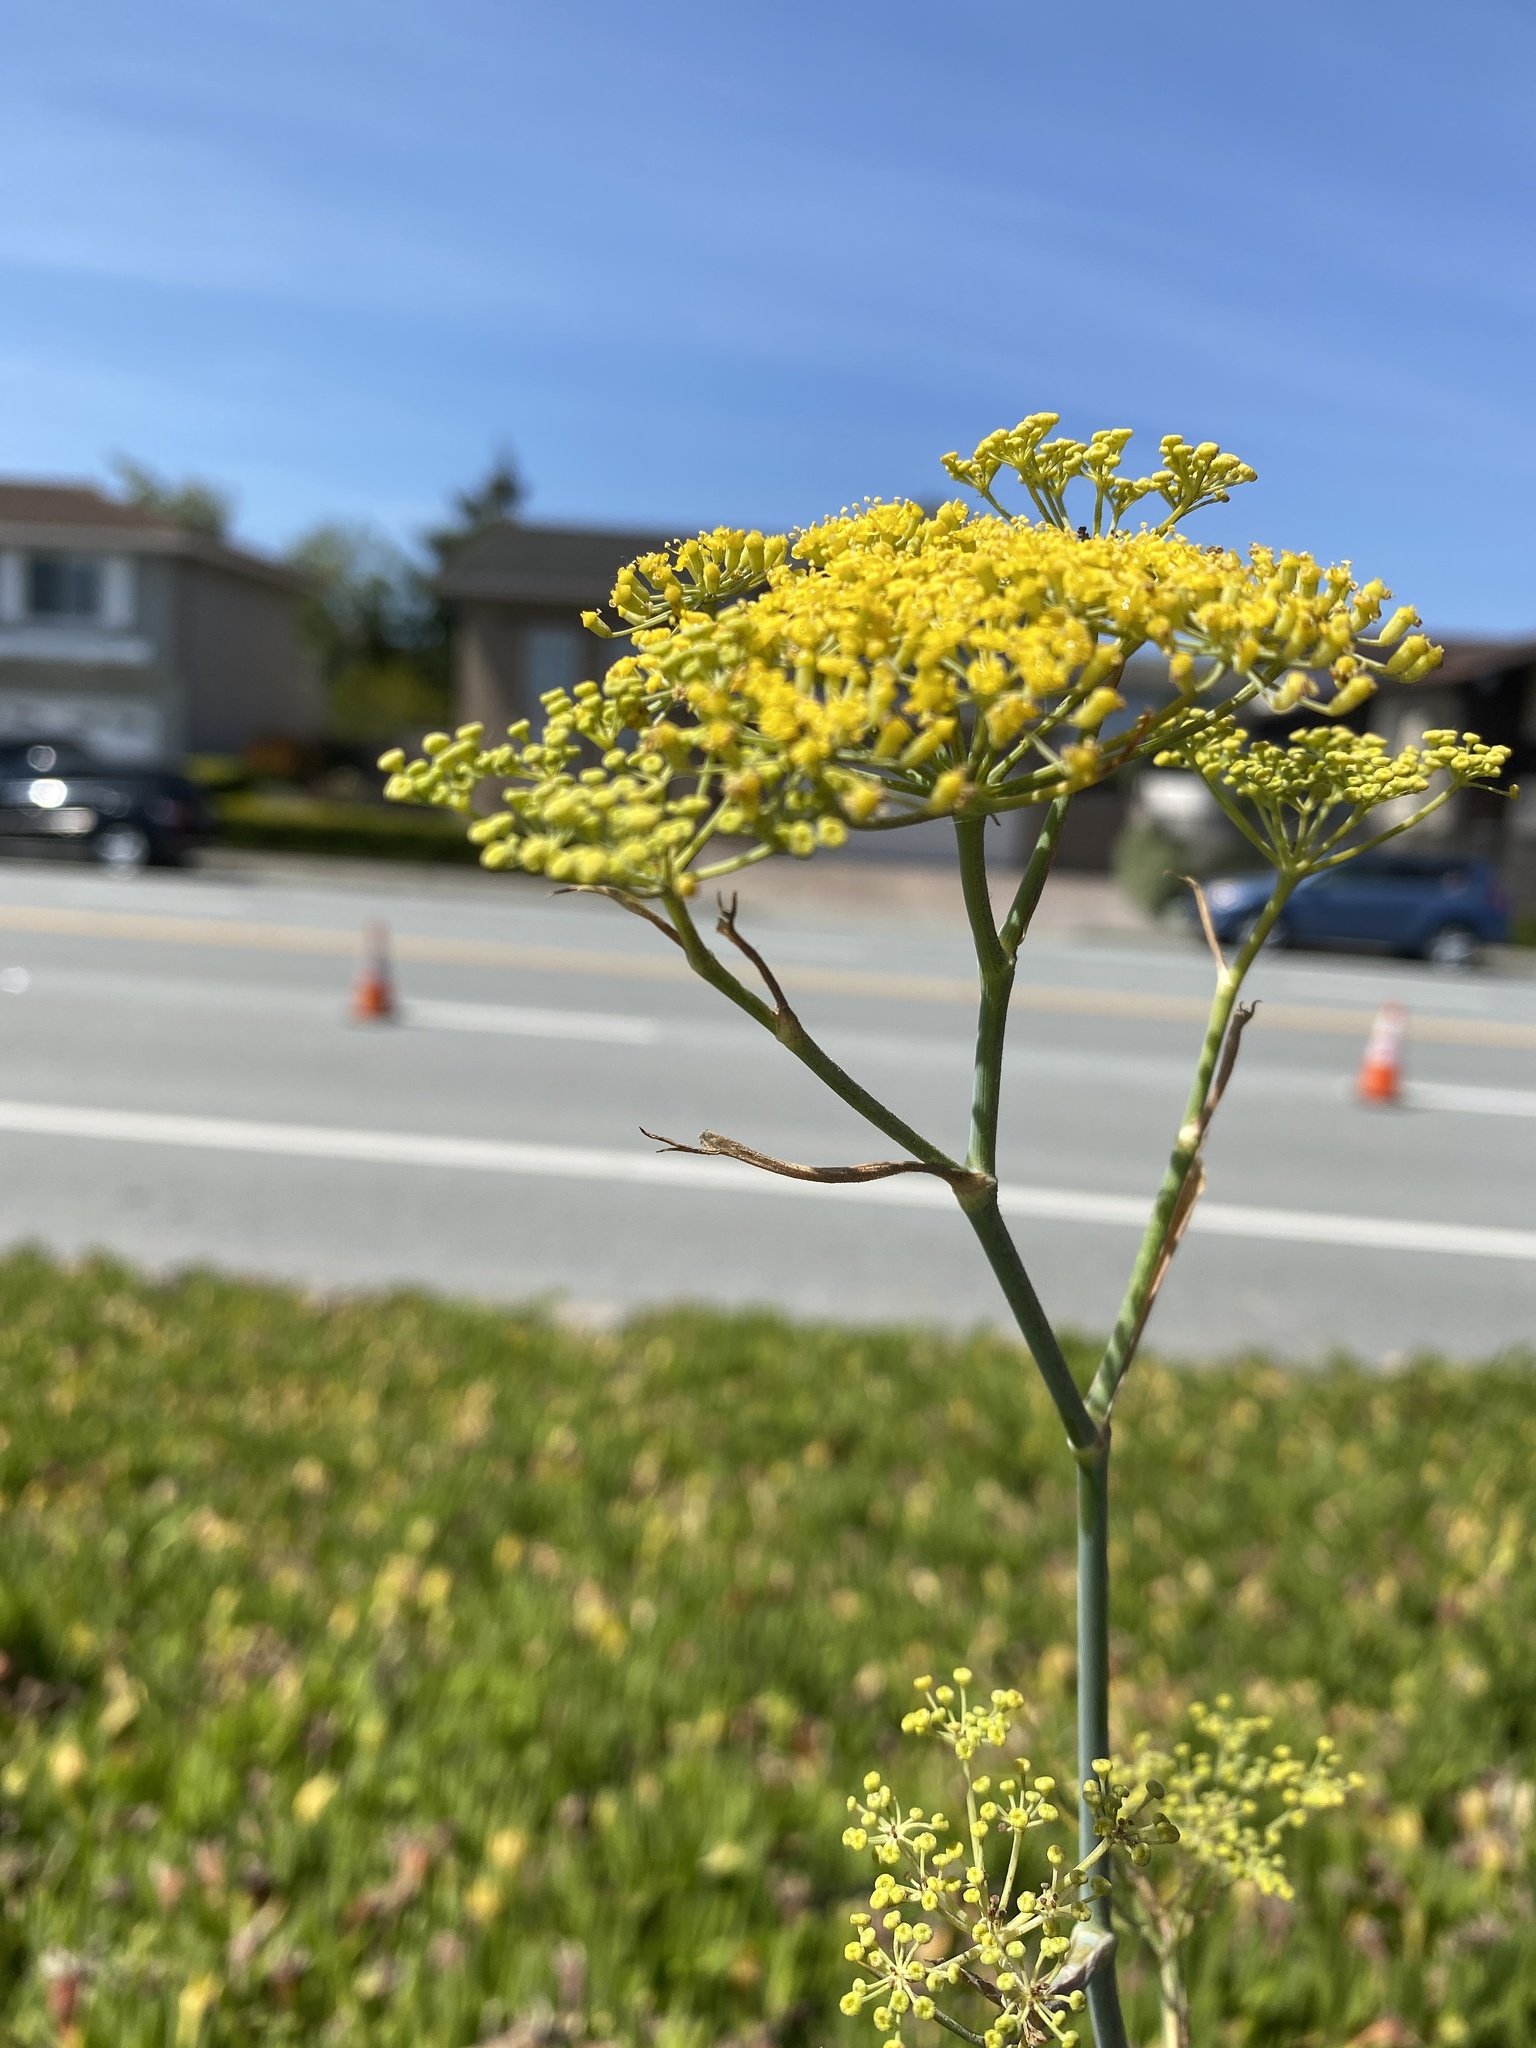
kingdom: Plantae
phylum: Tracheophyta
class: Magnoliopsida
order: Apiales
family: Apiaceae
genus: Foeniculum
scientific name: Foeniculum vulgare
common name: Fennel
